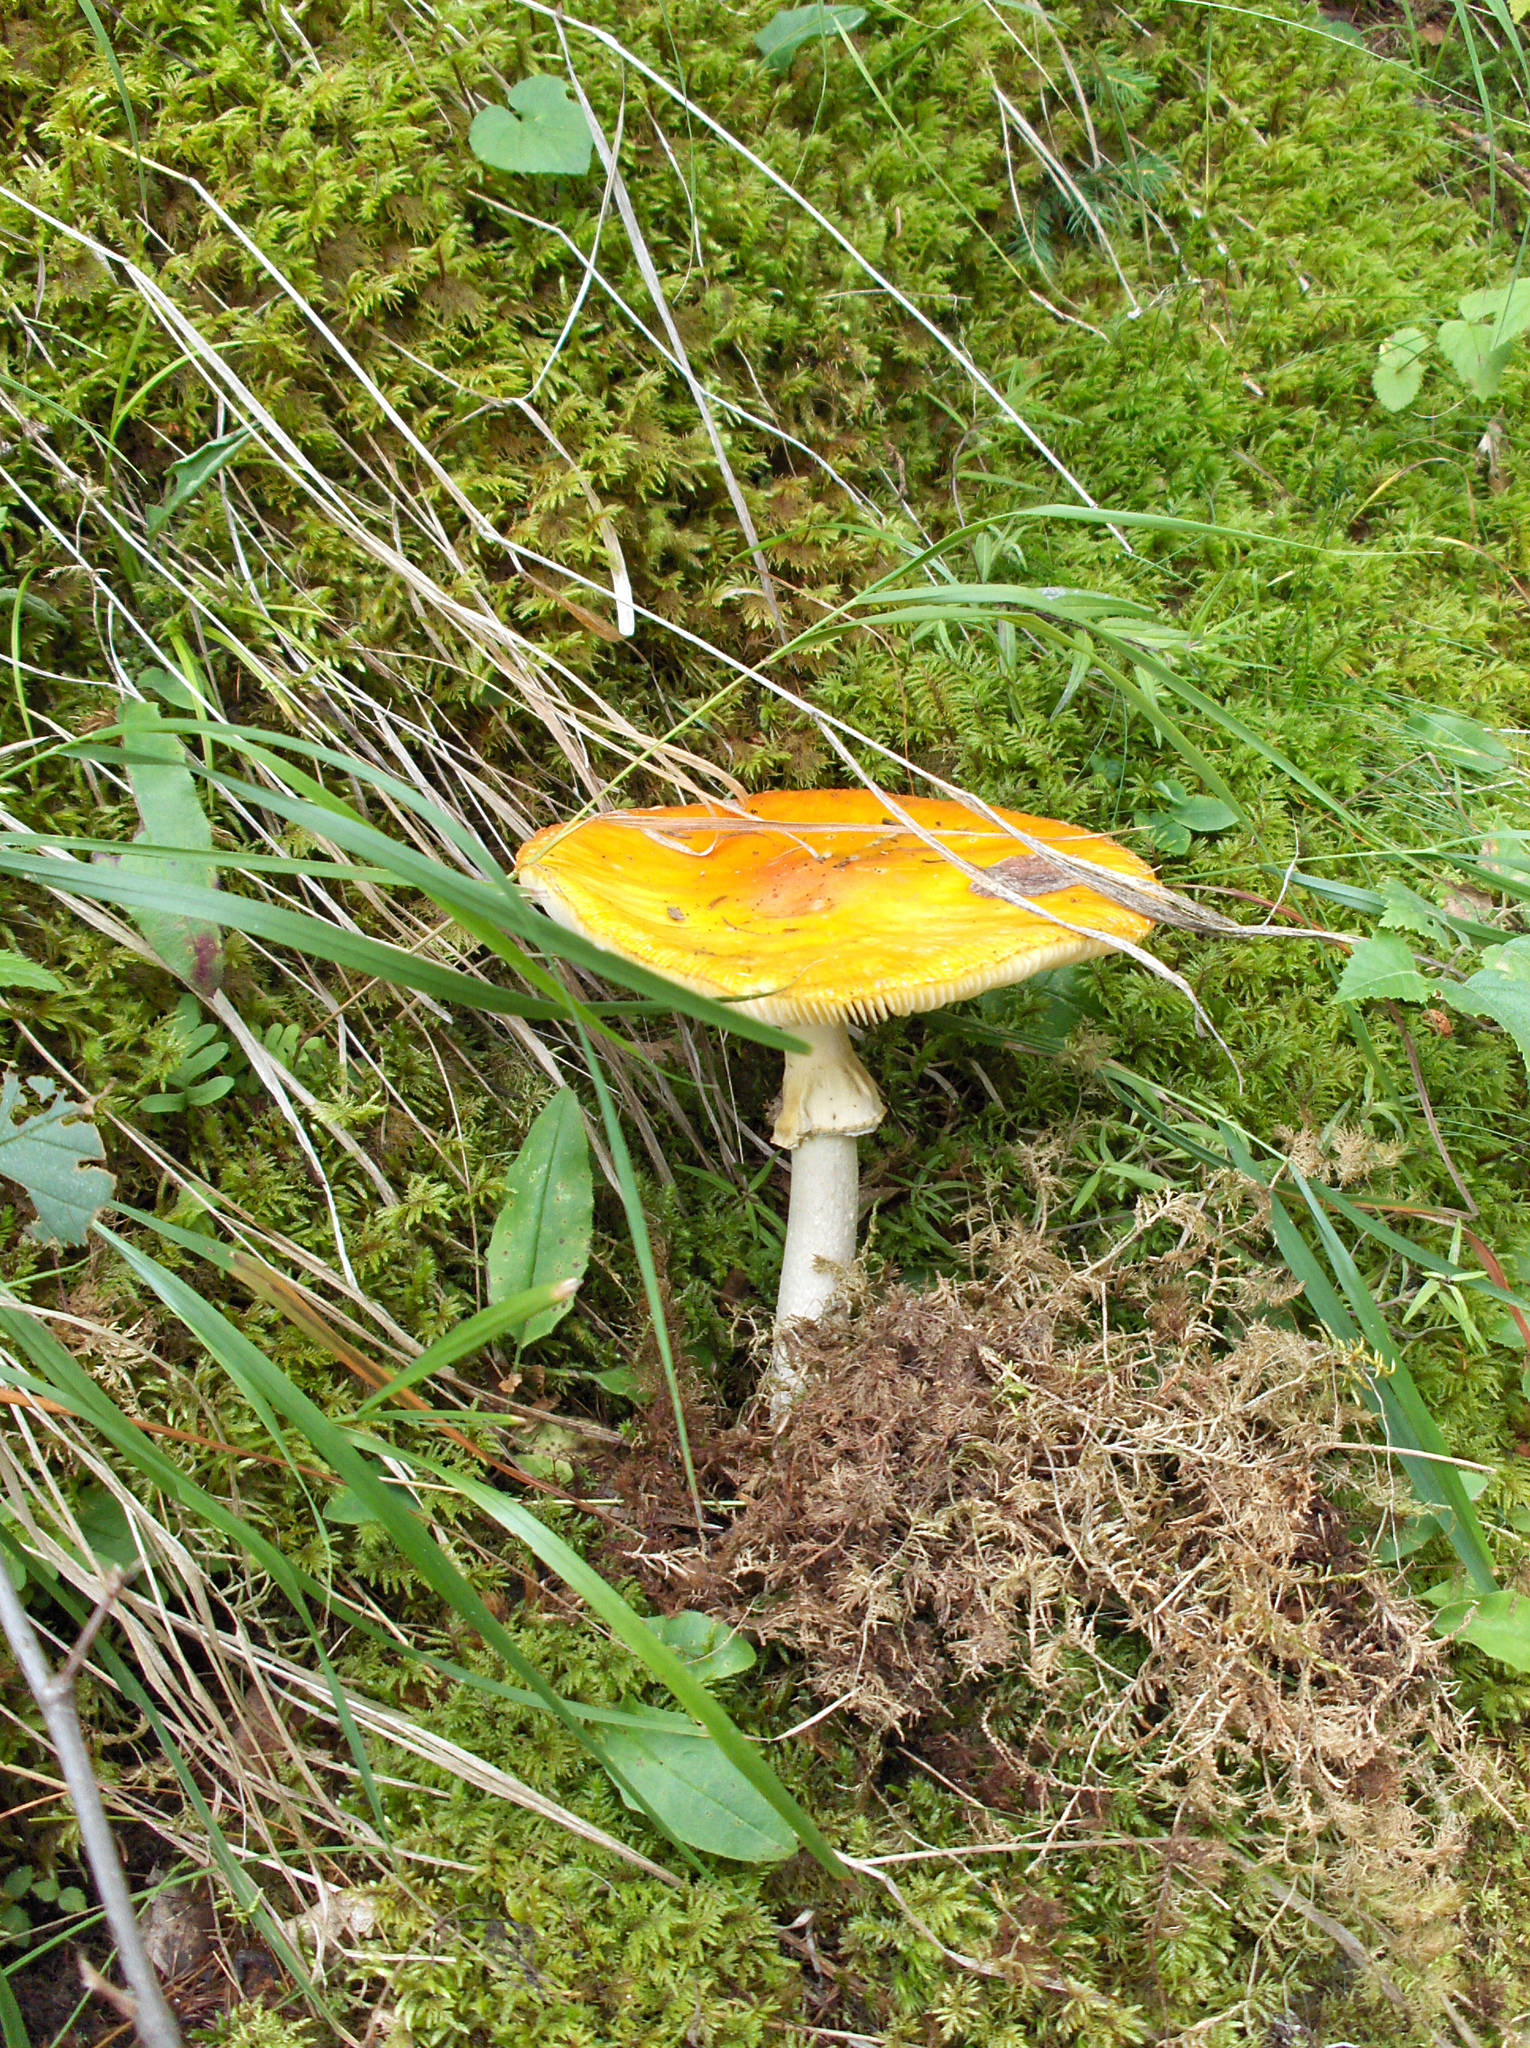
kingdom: Fungi
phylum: Basidiomycota
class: Agaricomycetes
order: Agaricales
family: Amanitaceae
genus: Amanita
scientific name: Amanita muscaria
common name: Fly agaric
